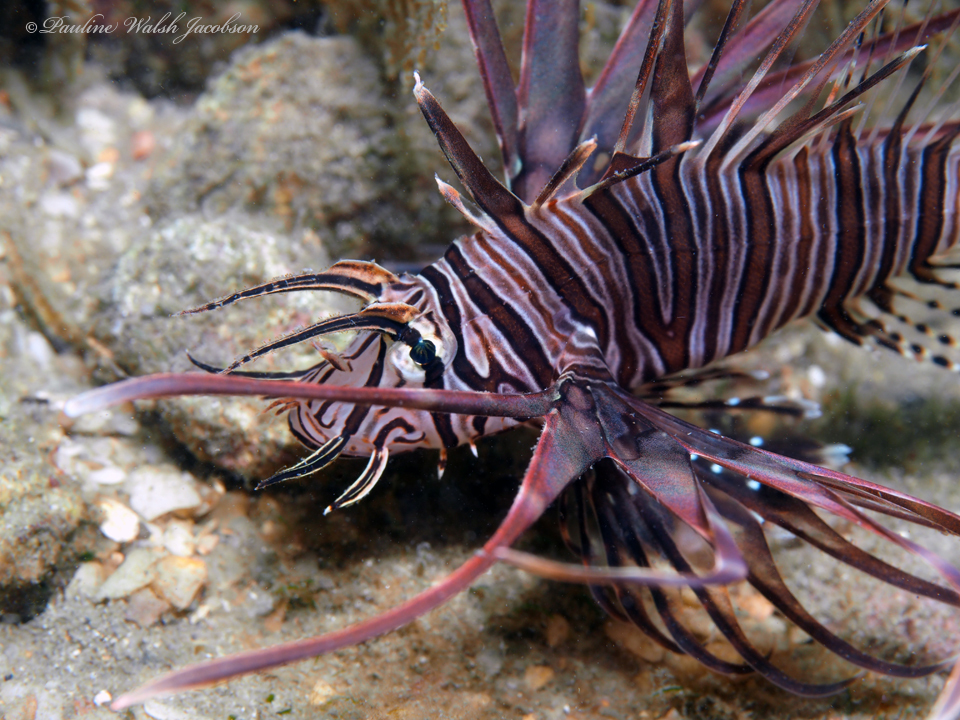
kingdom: Animalia
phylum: Chordata
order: Scorpaeniformes
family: Scorpaenidae
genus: Pterois
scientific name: Pterois volitans
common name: Lionfish
